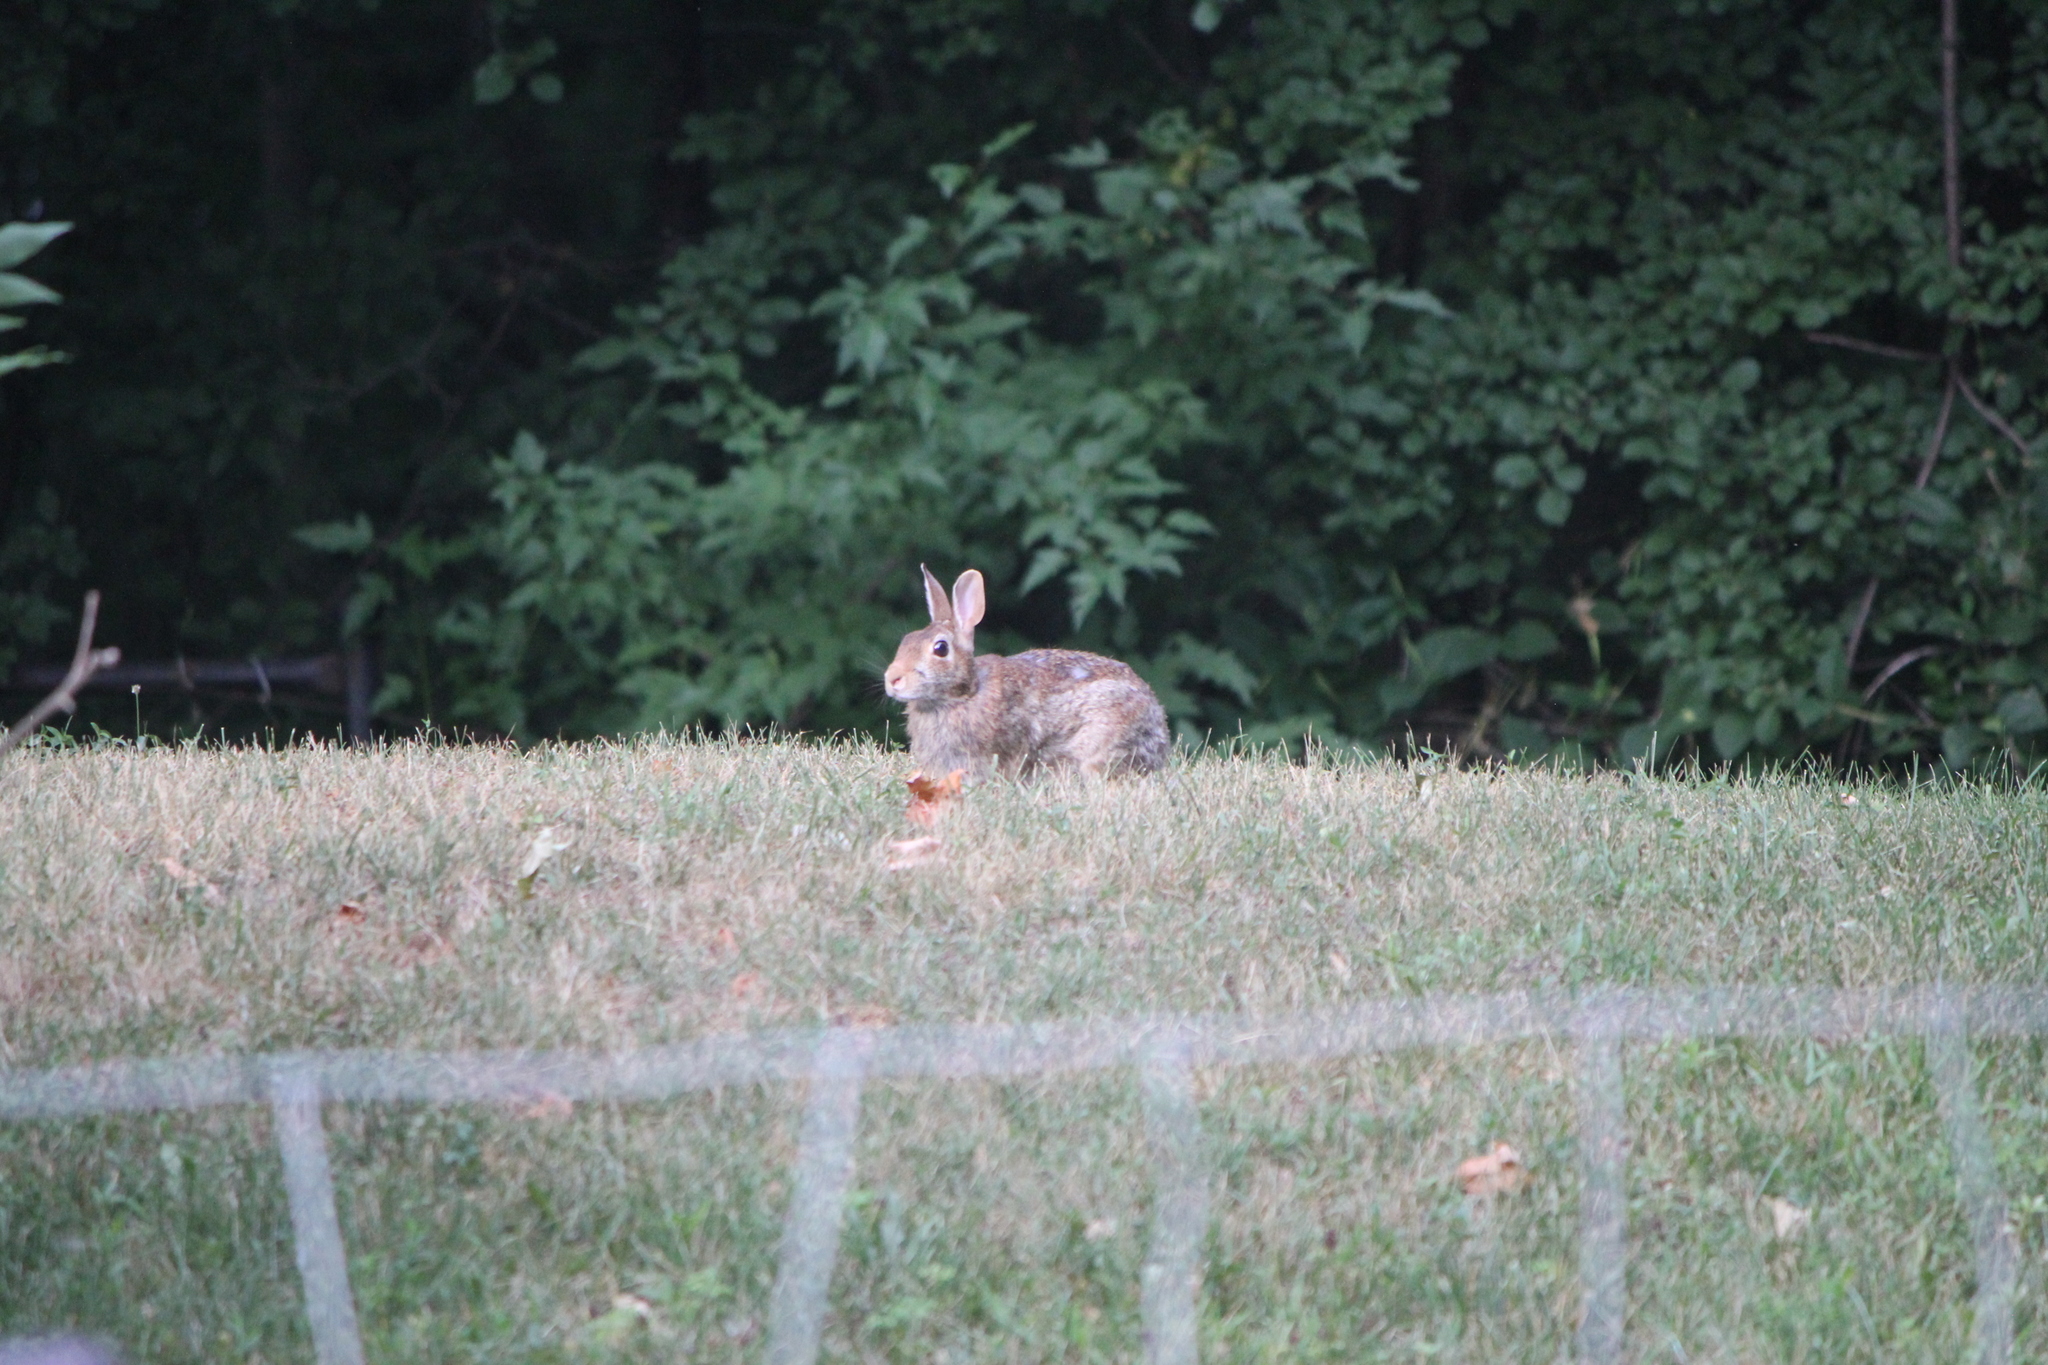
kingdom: Animalia
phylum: Chordata
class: Mammalia
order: Lagomorpha
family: Leporidae
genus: Sylvilagus
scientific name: Sylvilagus floridanus
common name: Eastern cottontail
